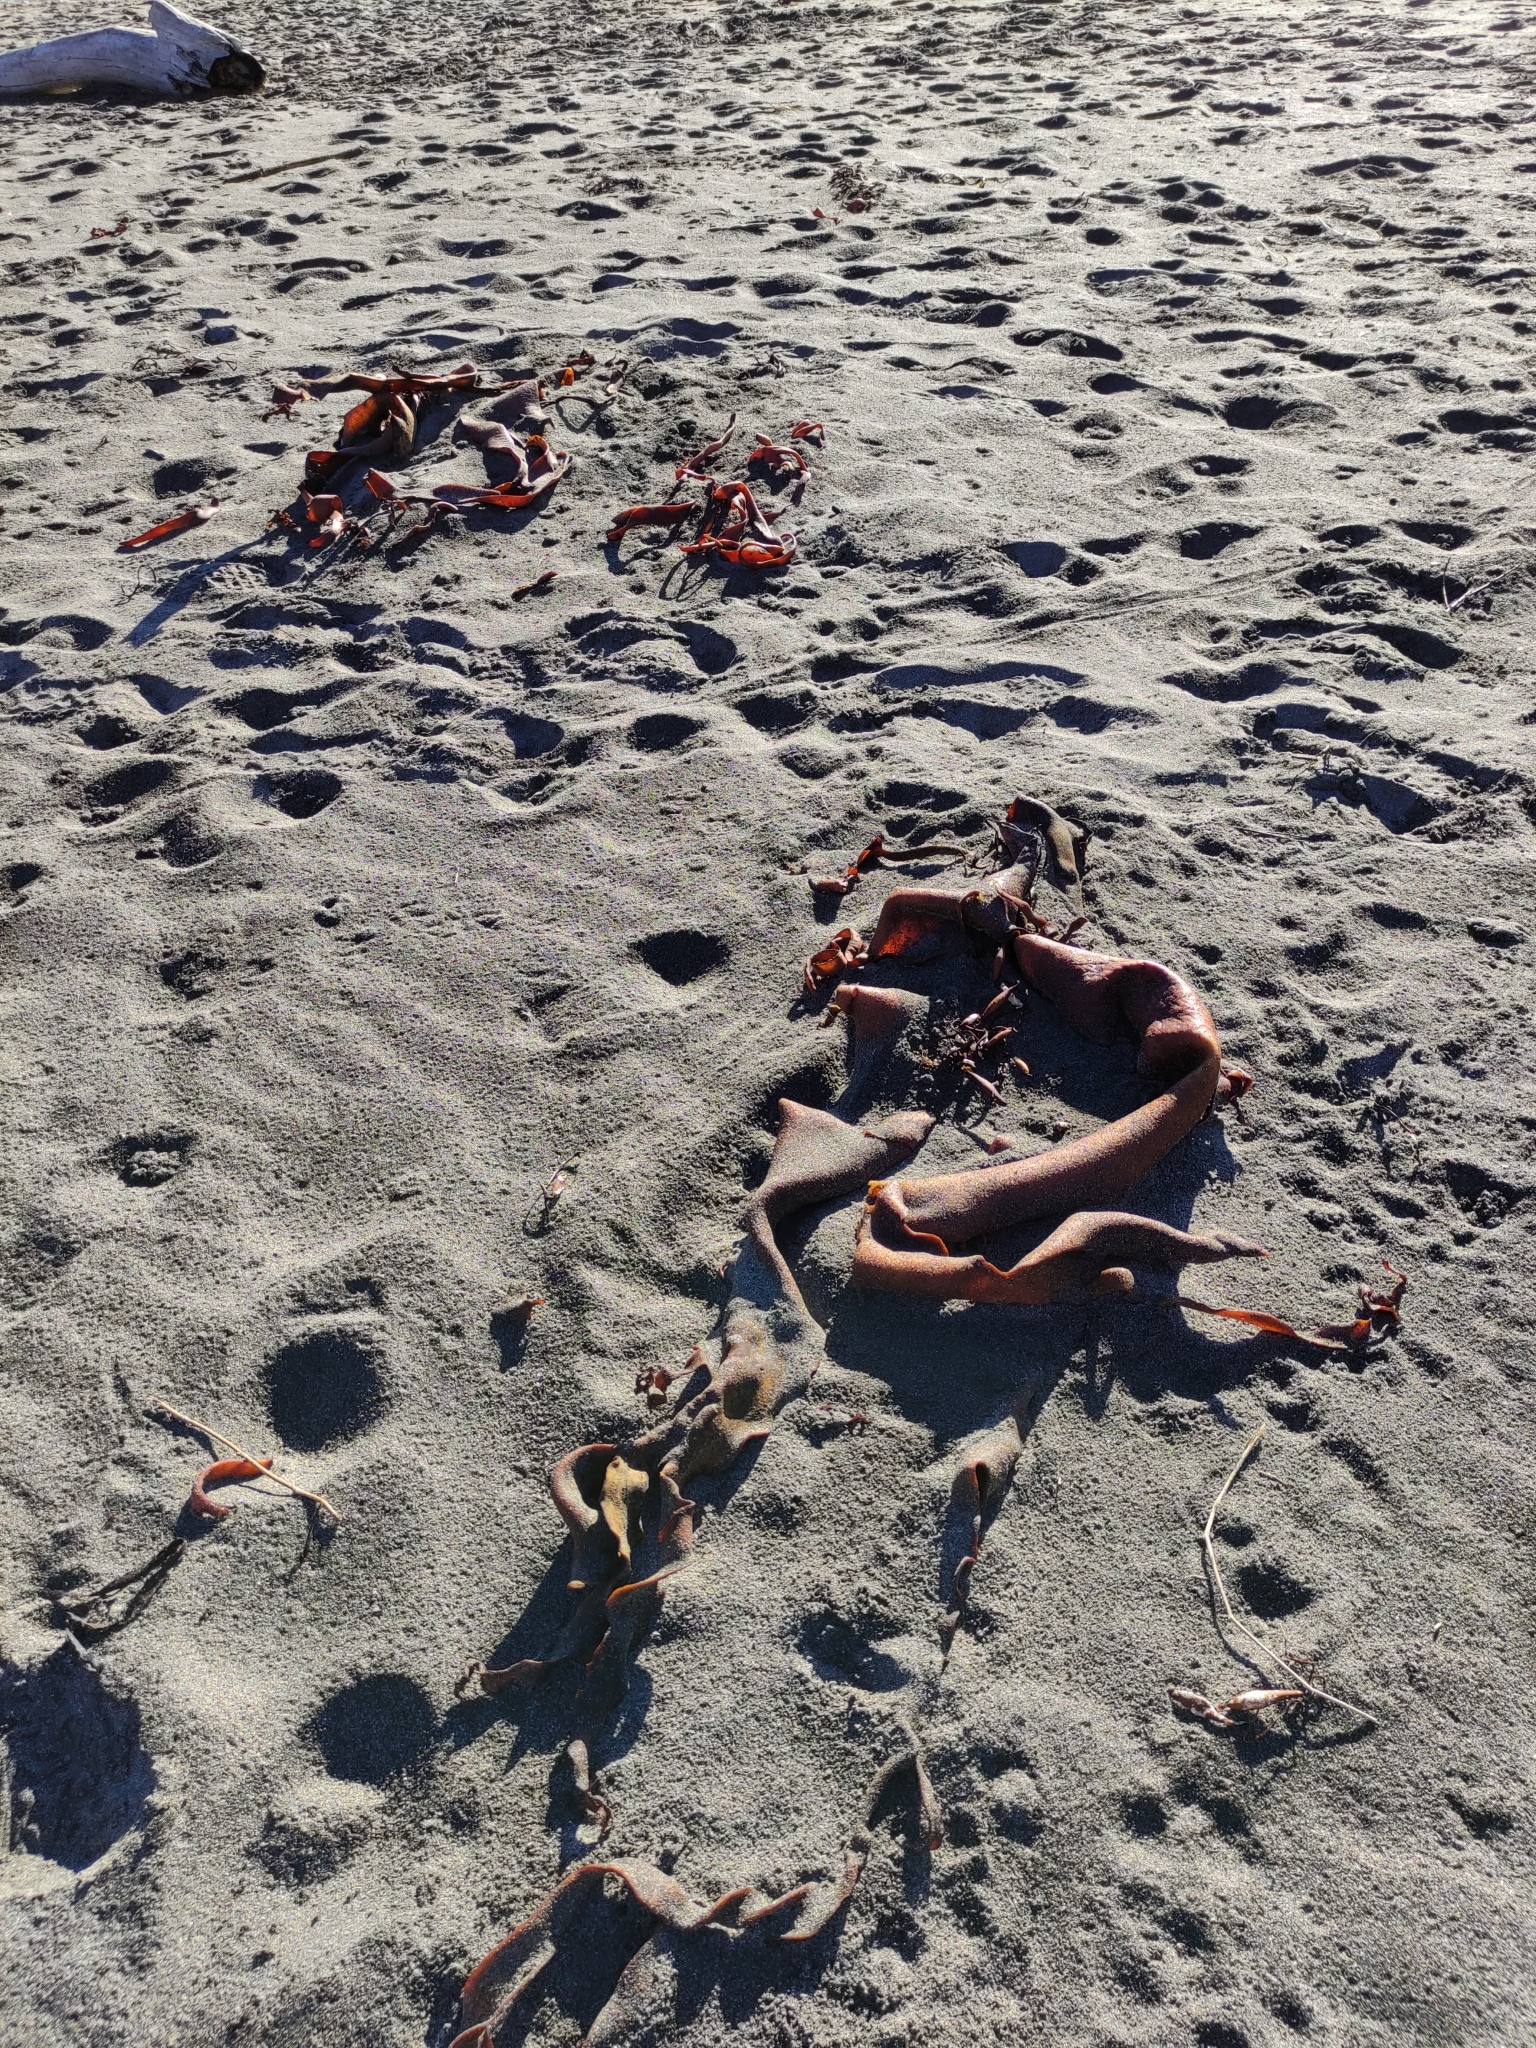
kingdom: Chromista
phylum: Ochrophyta
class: Phaeophyceae
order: Laminariales
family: Laminariaceae
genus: Macrocystis
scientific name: Macrocystis pyrifera
